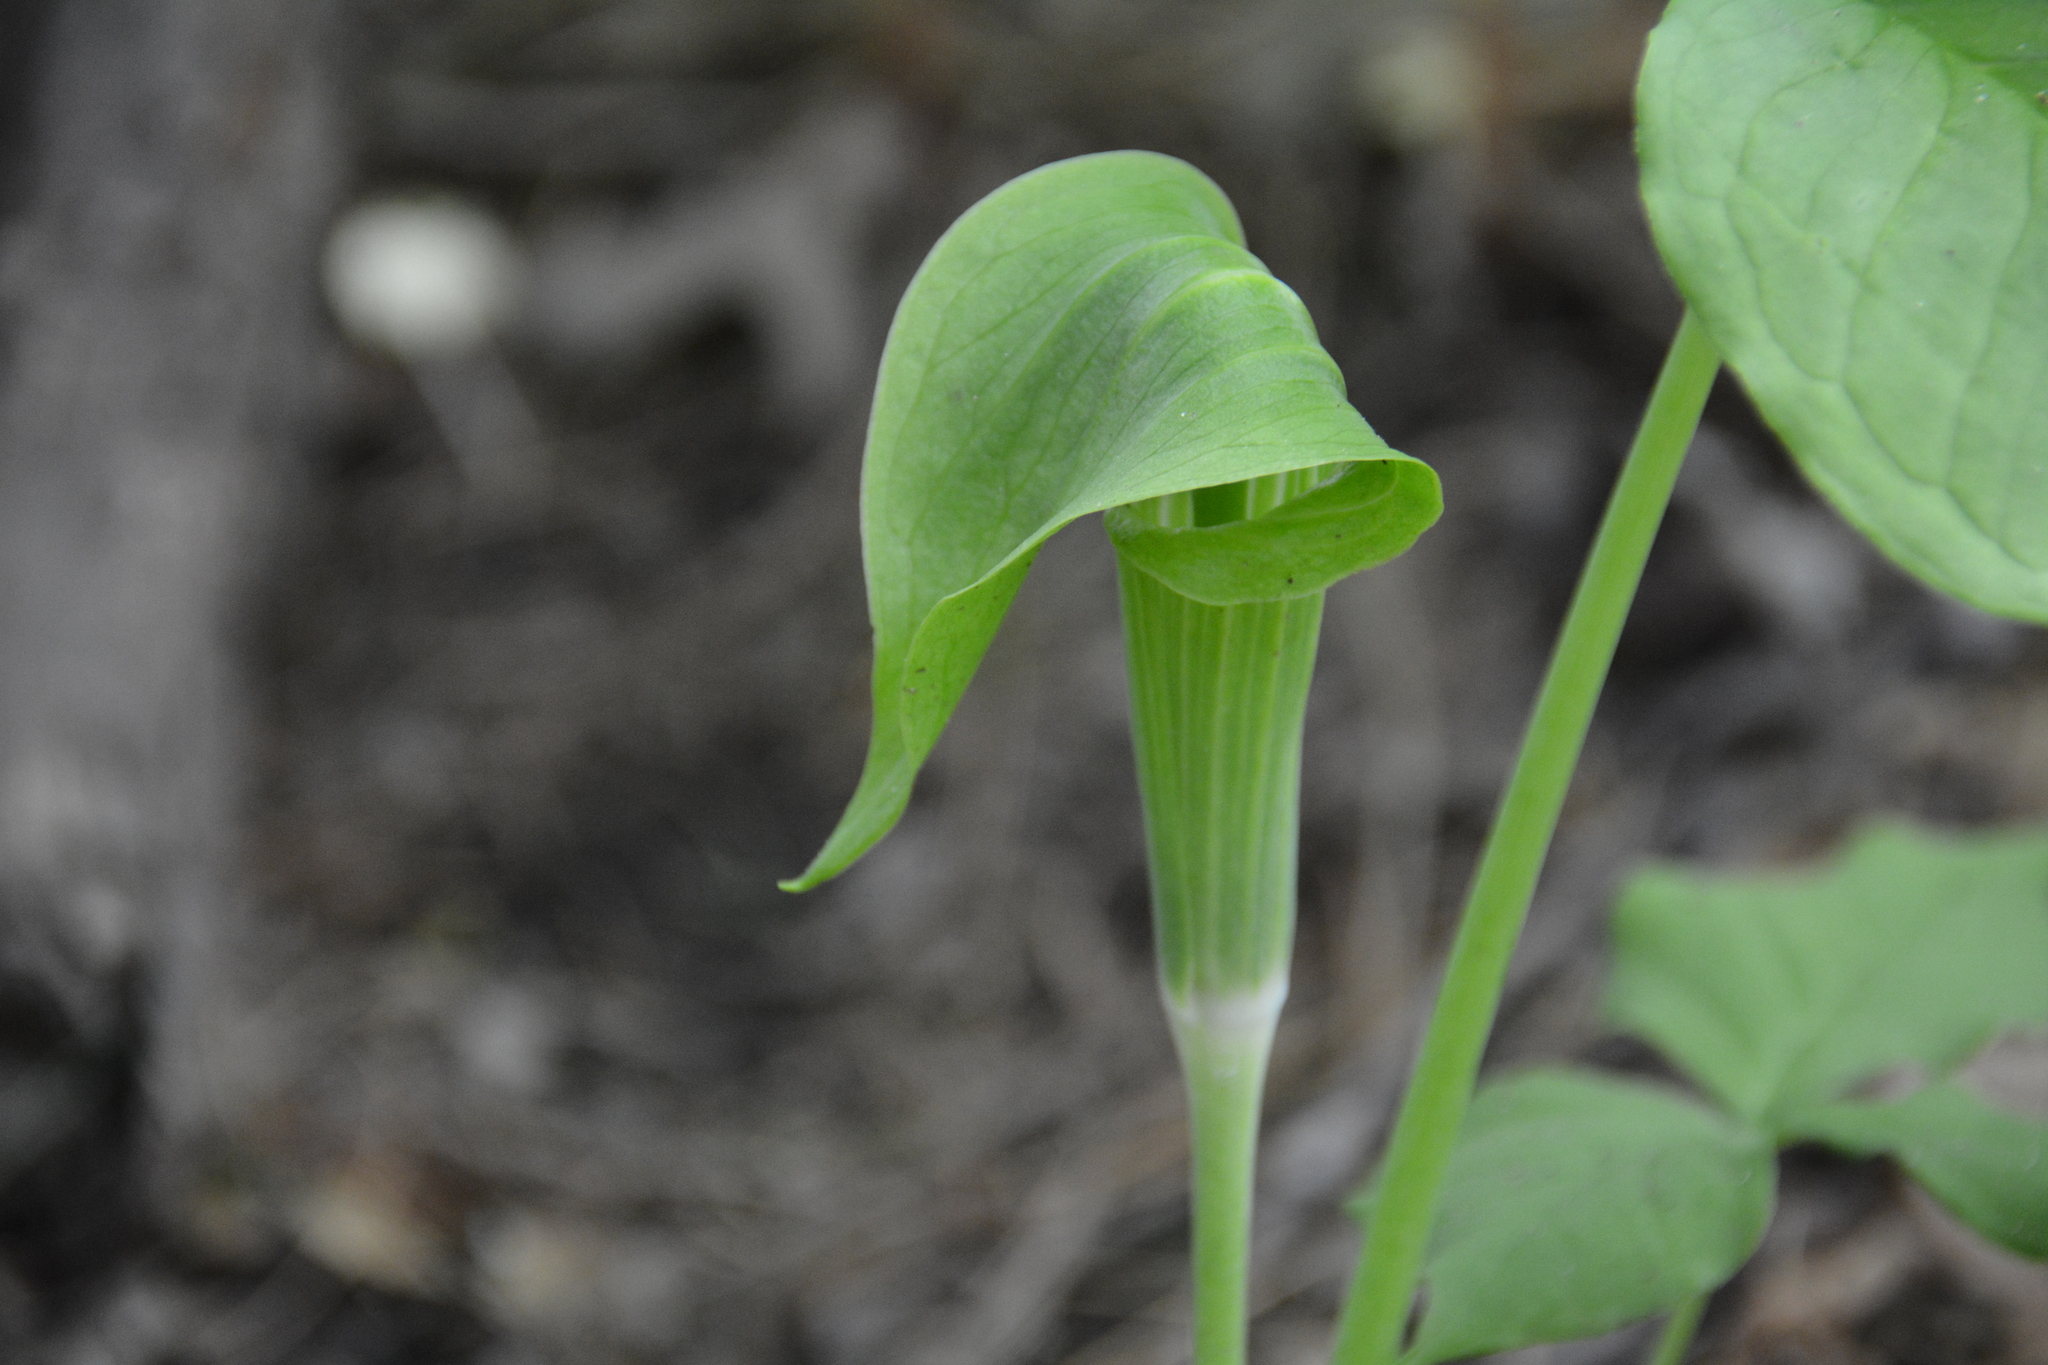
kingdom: Plantae
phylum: Tracheophyta
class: Liliopsida
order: Alismatales
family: Araceae
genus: Arisaema
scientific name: Arisaema triphyllum
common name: Jack-in-the-pulpit
